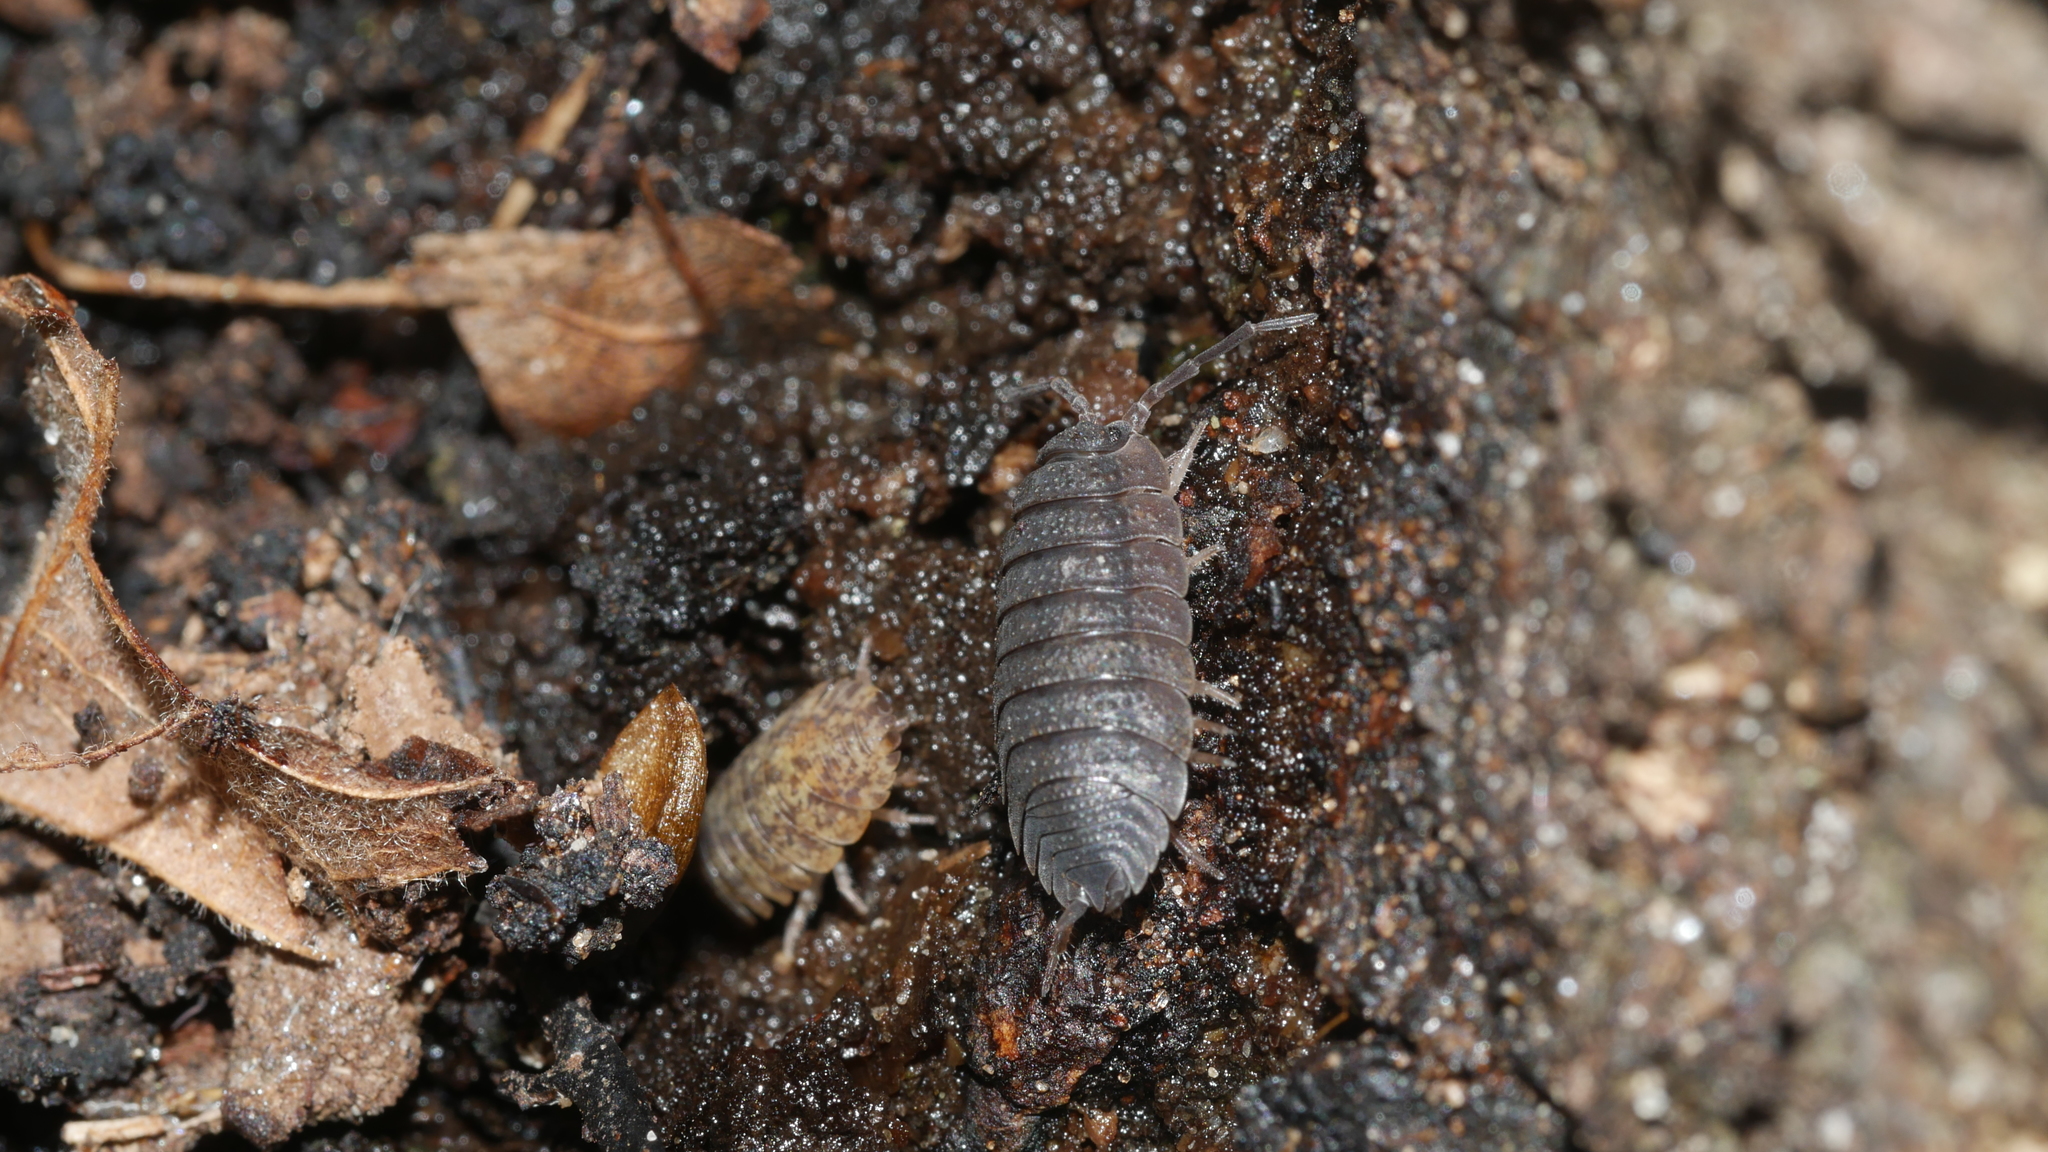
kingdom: Animalia
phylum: Arthropoda
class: Malacostraca
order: Isopoda
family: Porcellionidae
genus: Porcellio
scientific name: Porcellio scaber
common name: Common rough woodlouse
